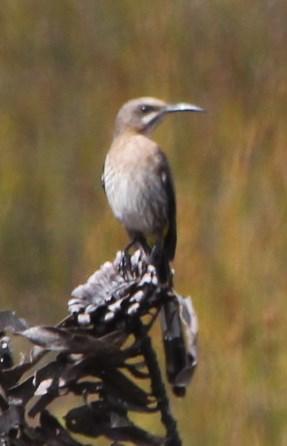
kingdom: Animalia
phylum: Chordata
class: Aves
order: Passeriformes
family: Promeropidae
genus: Promerops
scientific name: Promerops cafer
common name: Cape sugarbird
